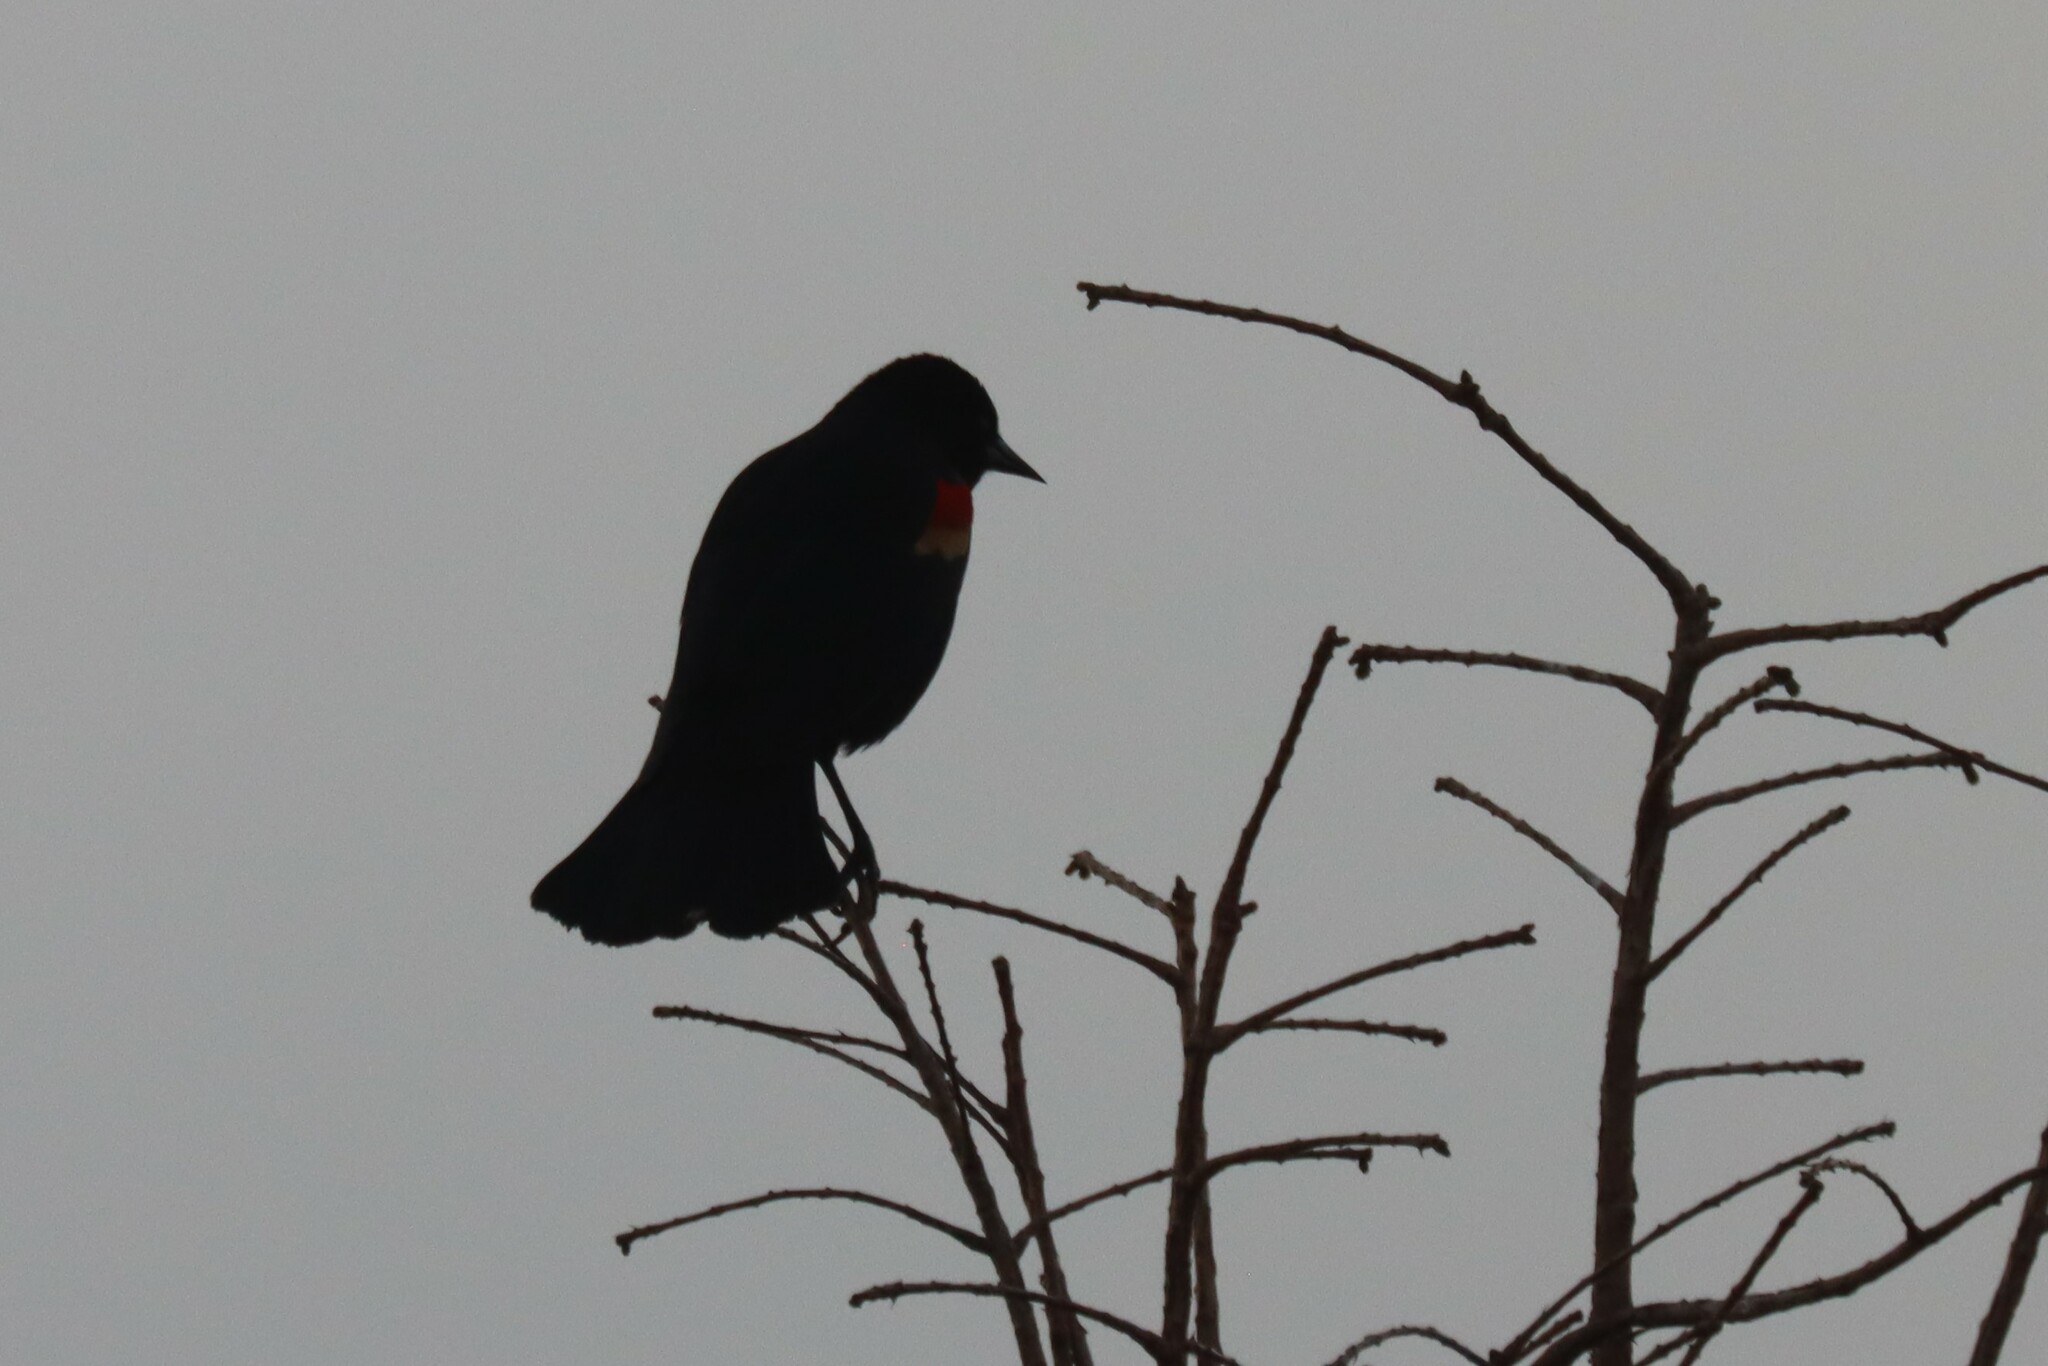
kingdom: Animalia
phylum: Chordata
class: Aves
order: Passeriformes
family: Icteridae
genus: Agelaius
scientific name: Agelaius phoeniceus
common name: Red-winged blackbird
